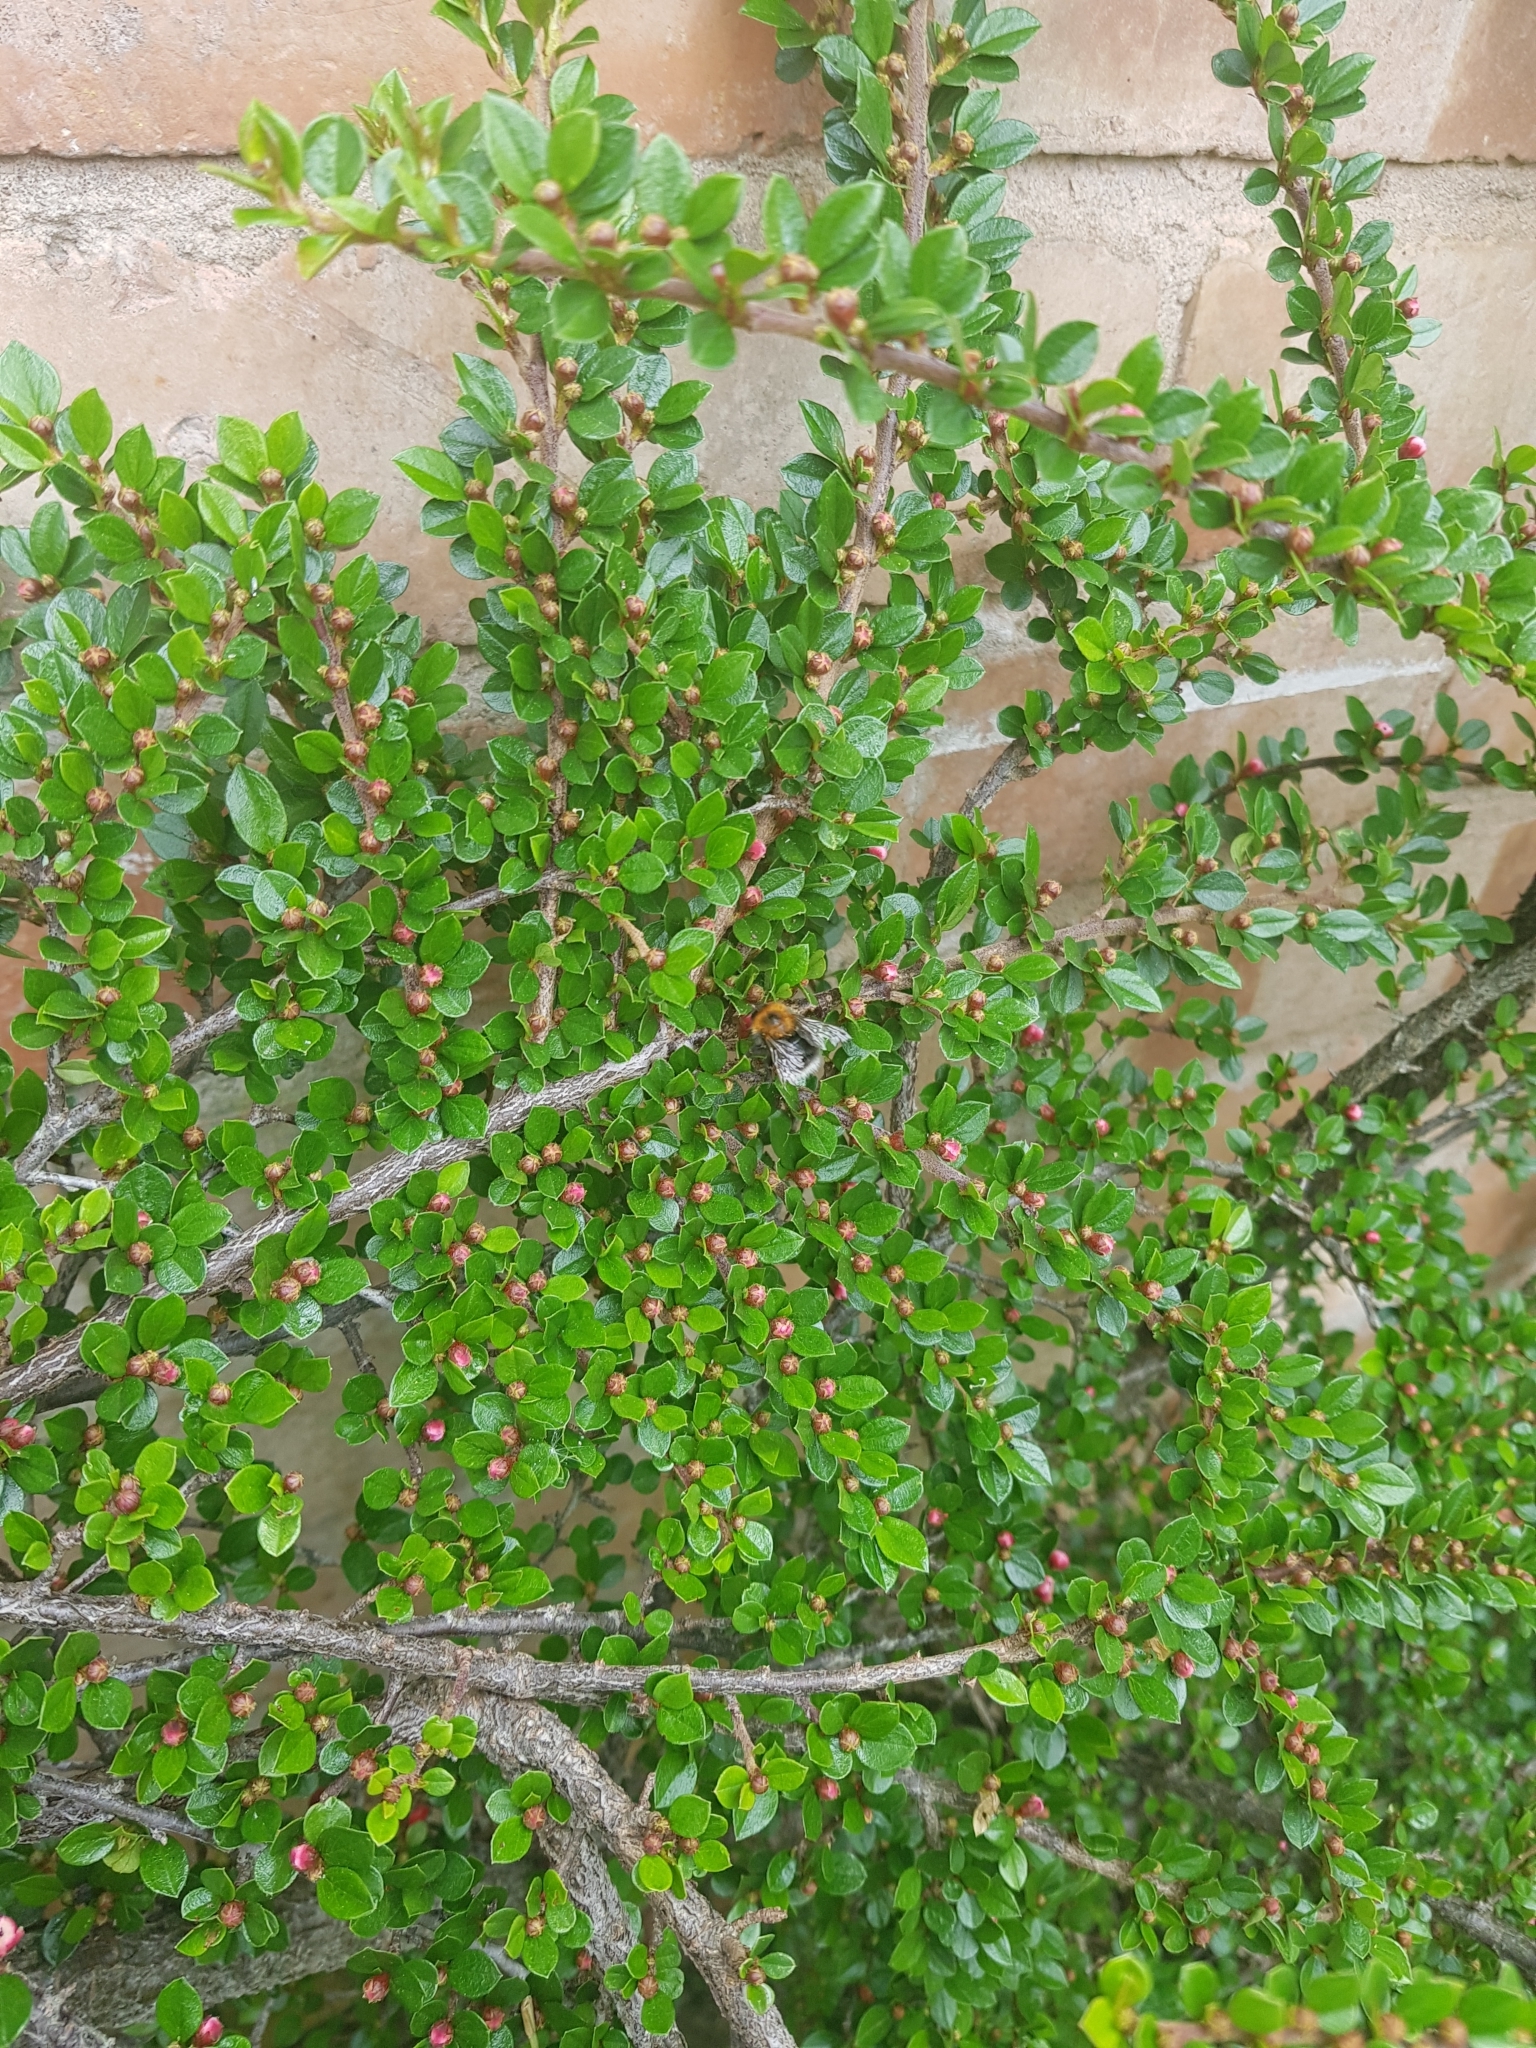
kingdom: Animalia
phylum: Arthropoda
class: Insecta
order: Hymenoptera
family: Apidae
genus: Bombus
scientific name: Bombus hypnorum
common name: New garden bumblebee
